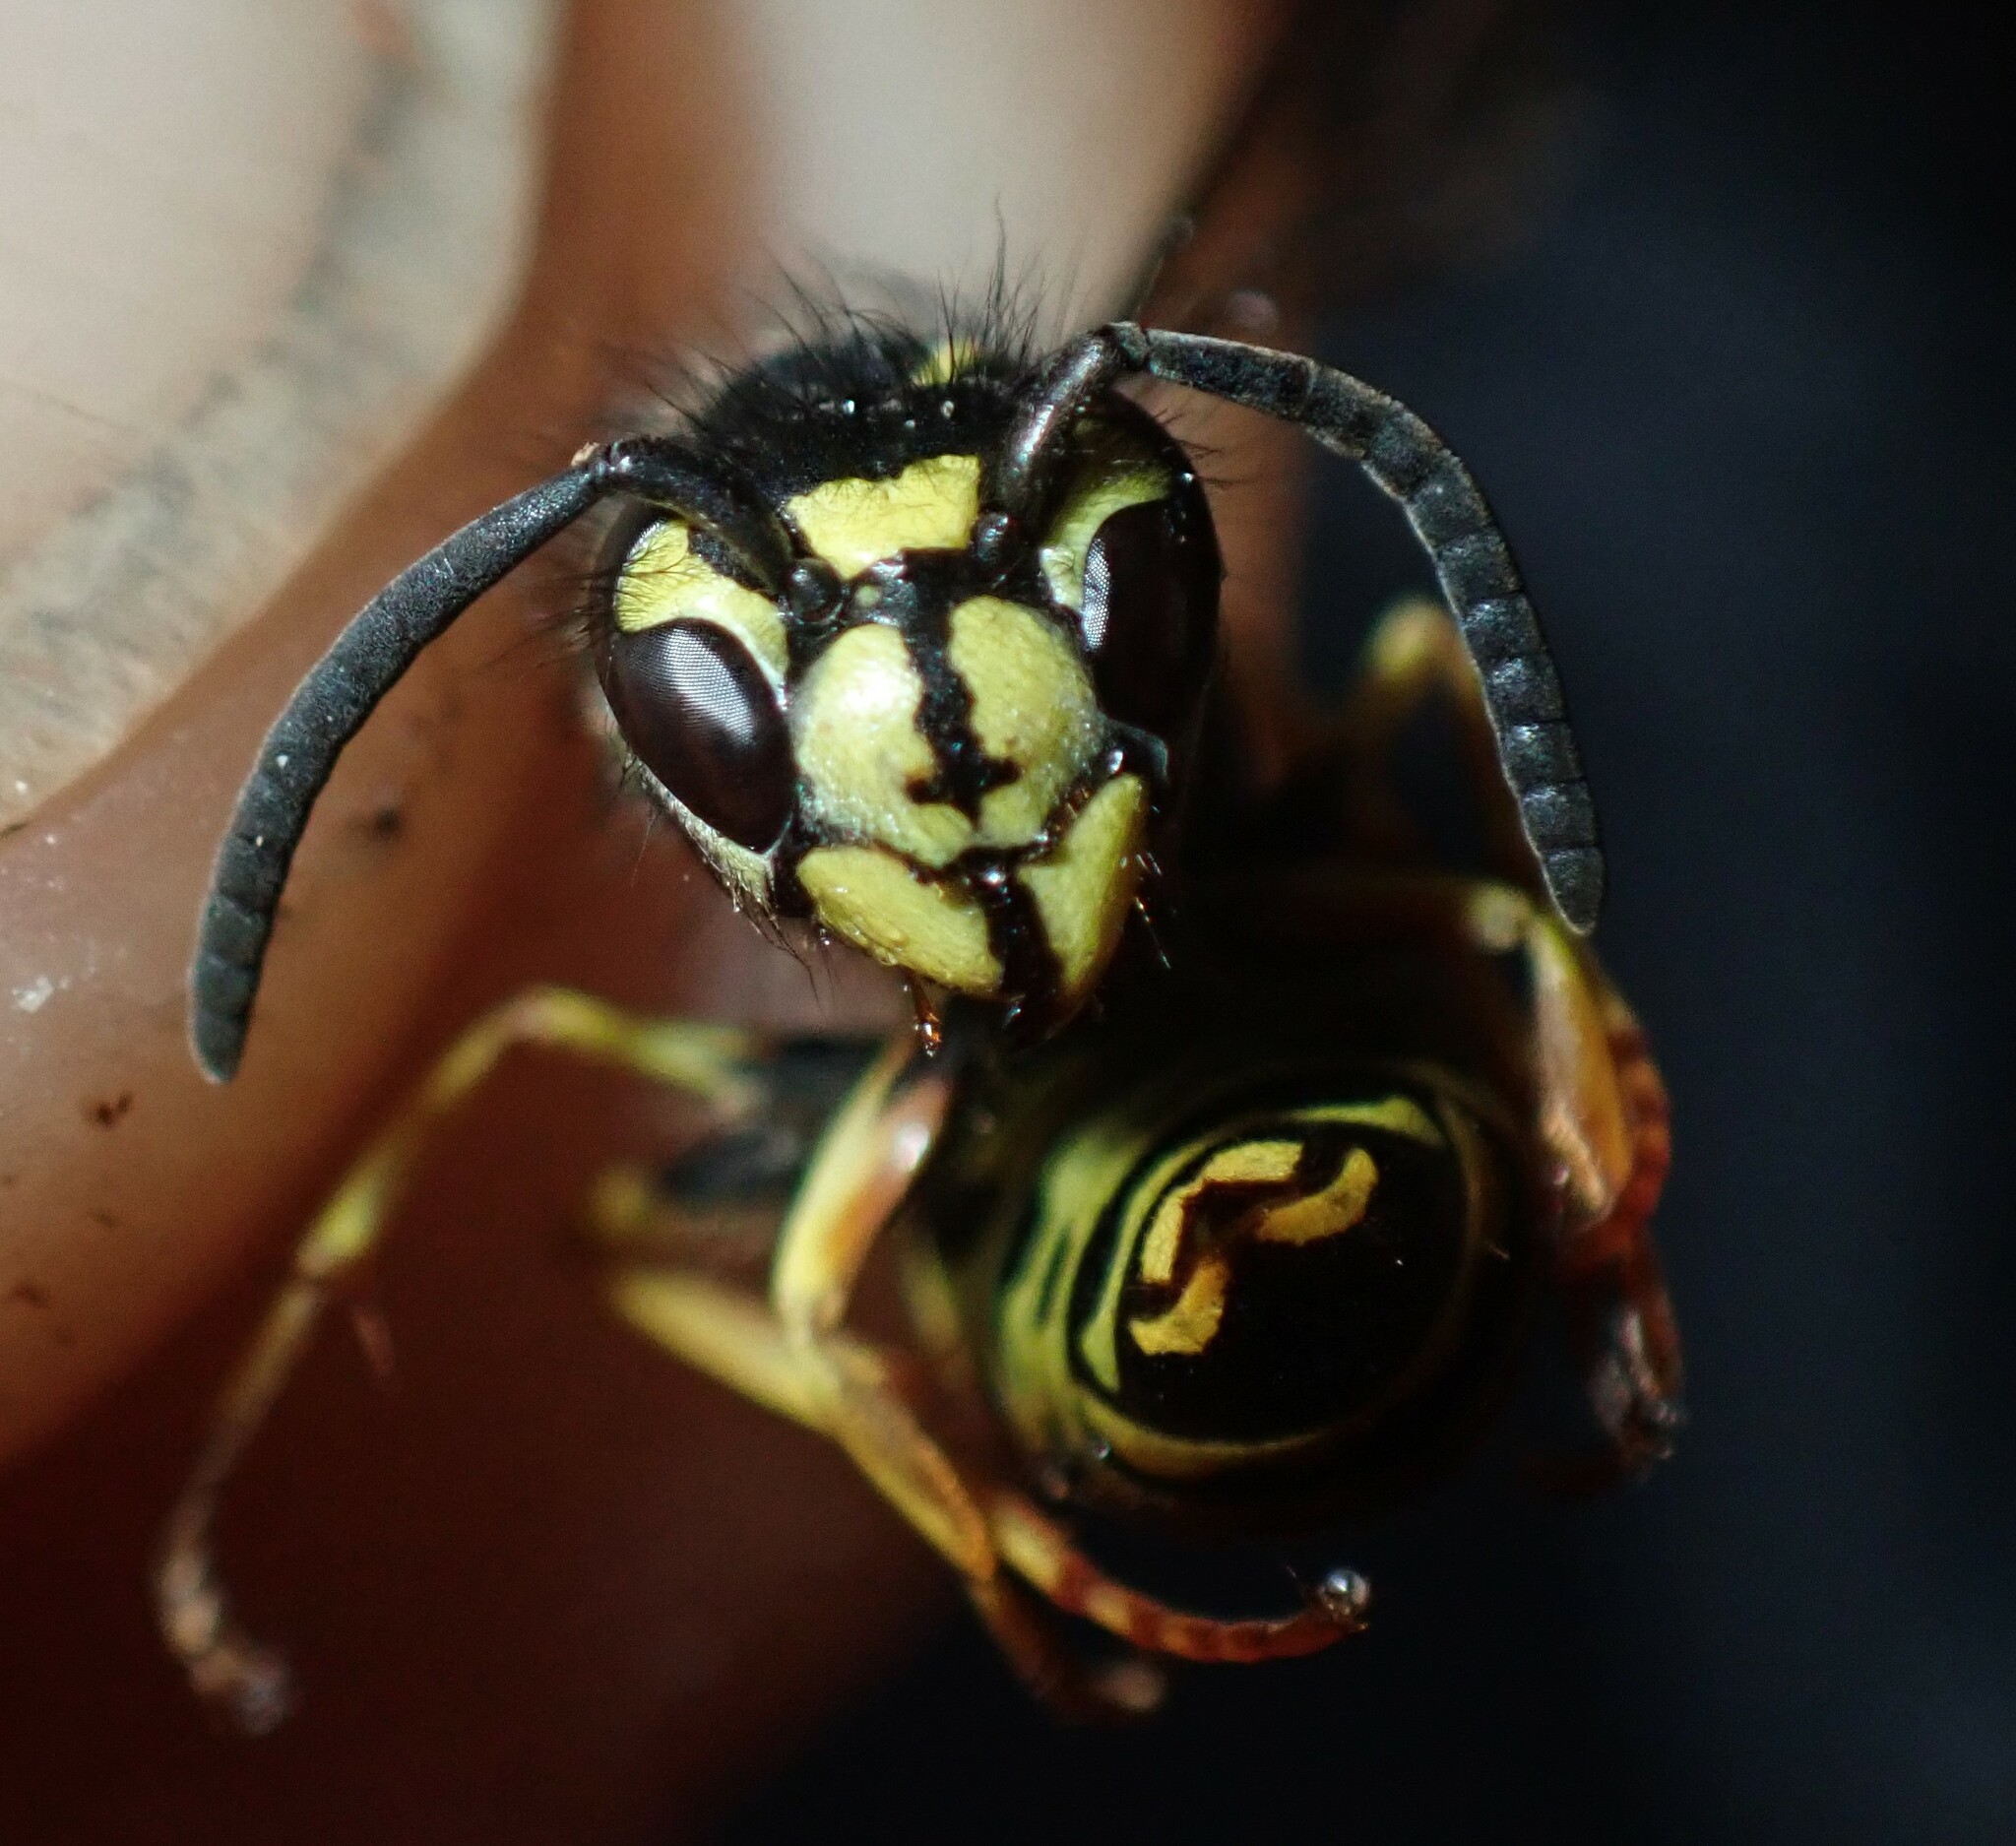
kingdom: Animalia
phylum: Arthropoda
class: Insecta
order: Hymenoptera
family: Vespidae
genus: Vespula
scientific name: Vespula alascensis
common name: Alaska yellowjacket
